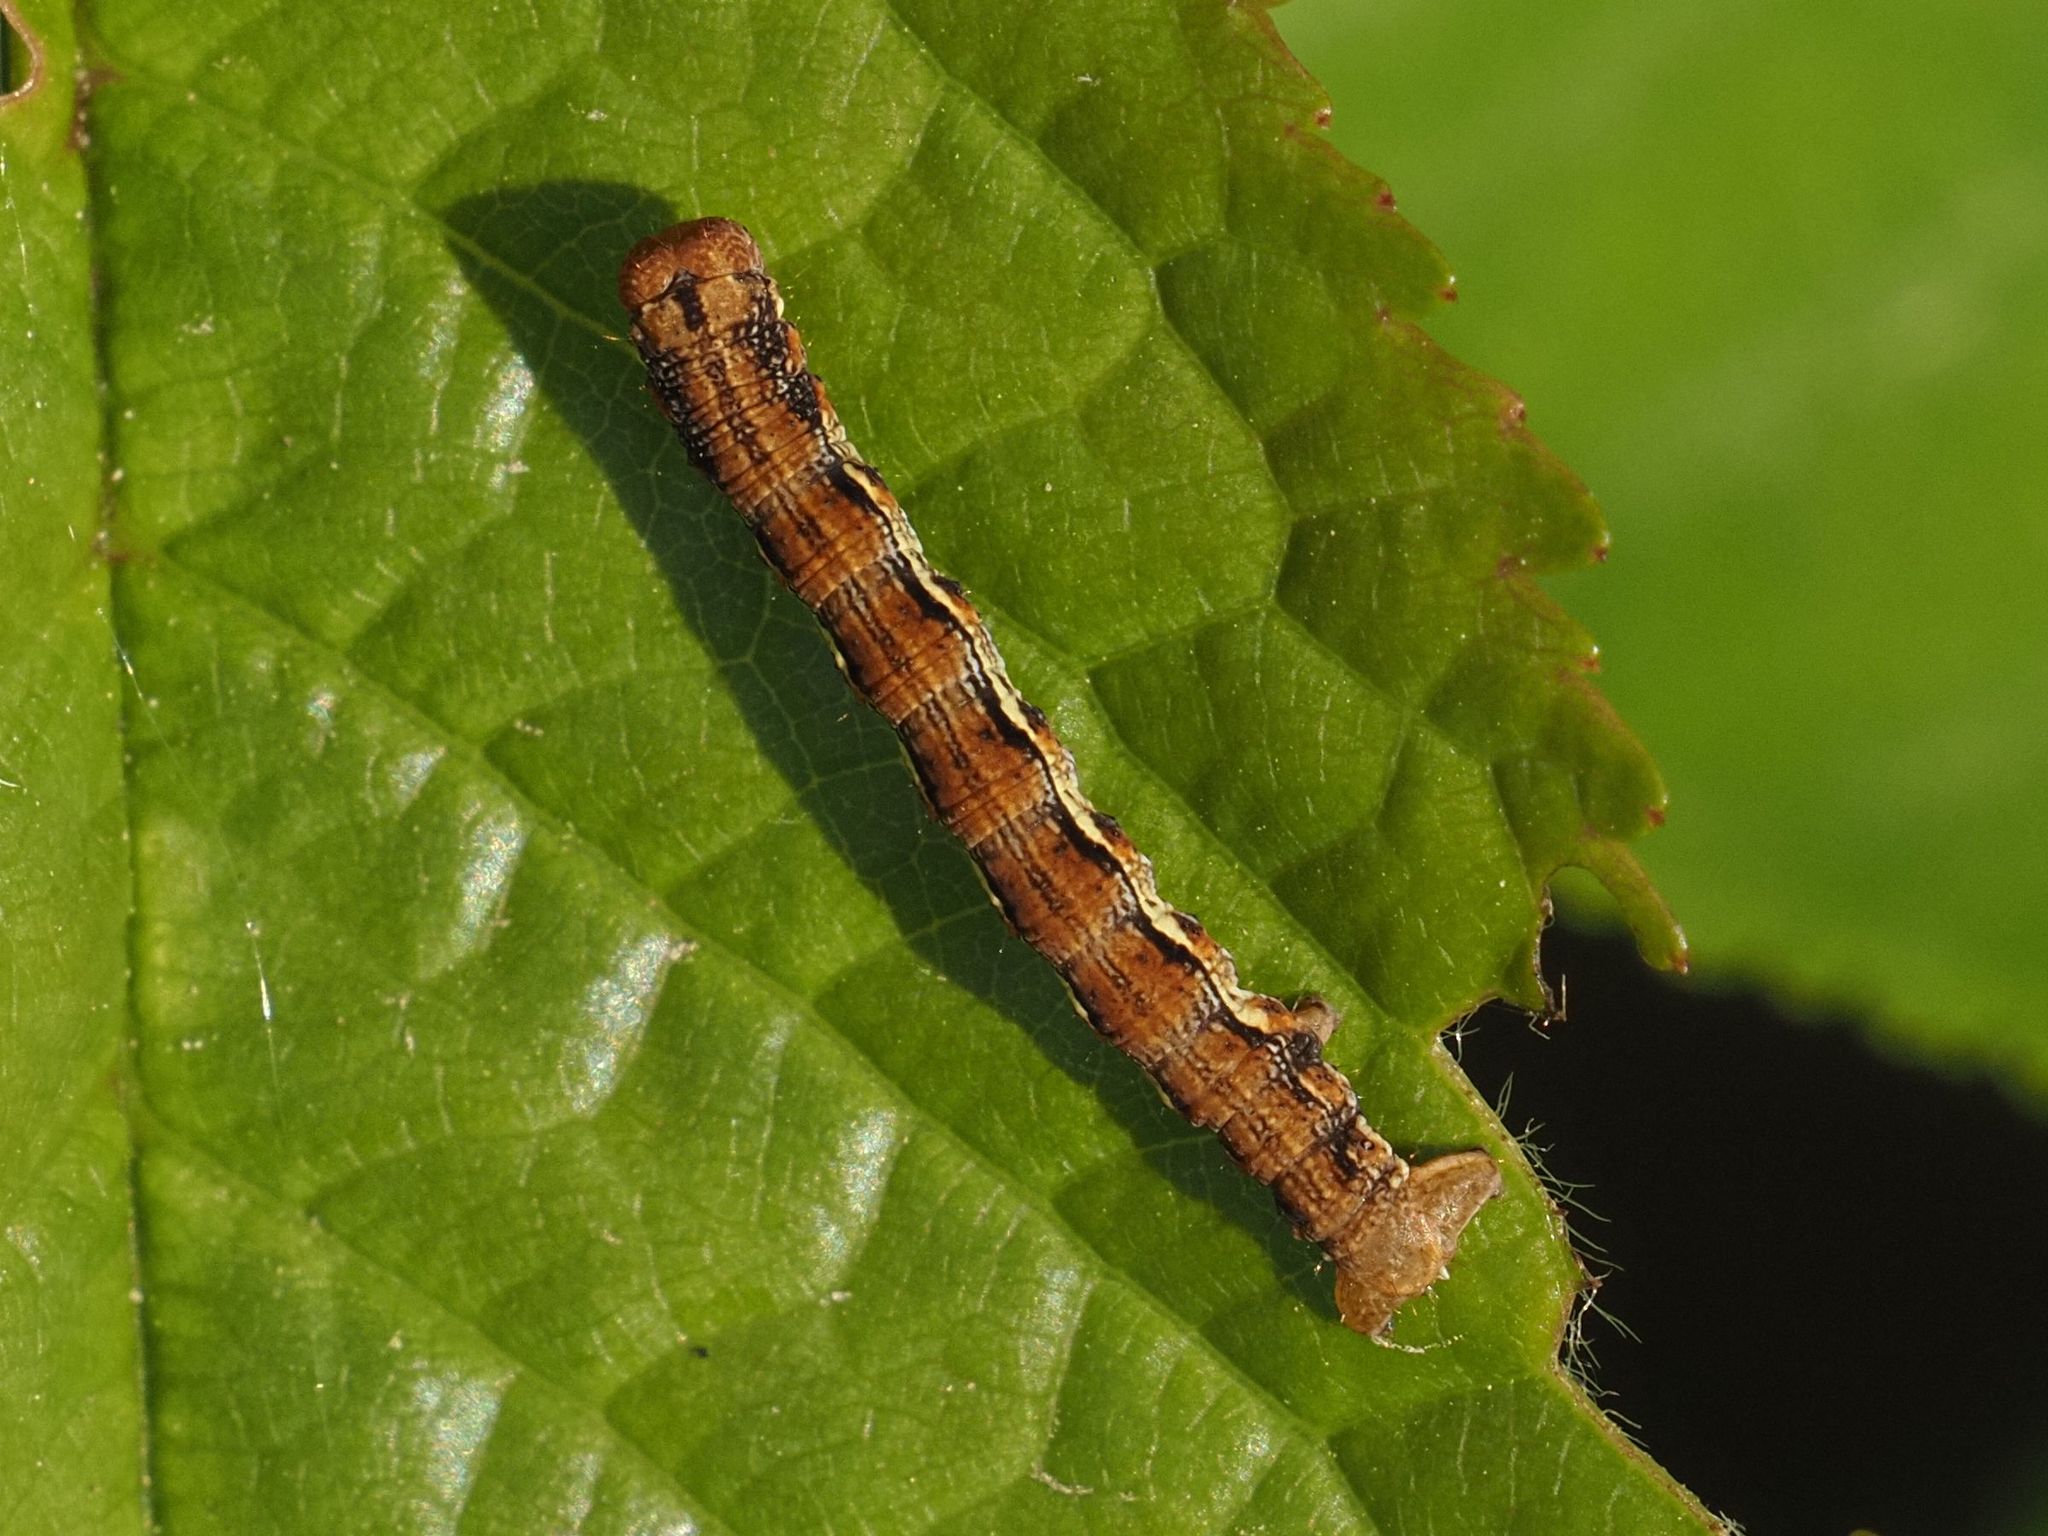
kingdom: Animalia
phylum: Arthropoda
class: Insecta
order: Lepidoptera
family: Geometridae
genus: Erannis
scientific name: Erannis defoliaria
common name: Mottled umber
